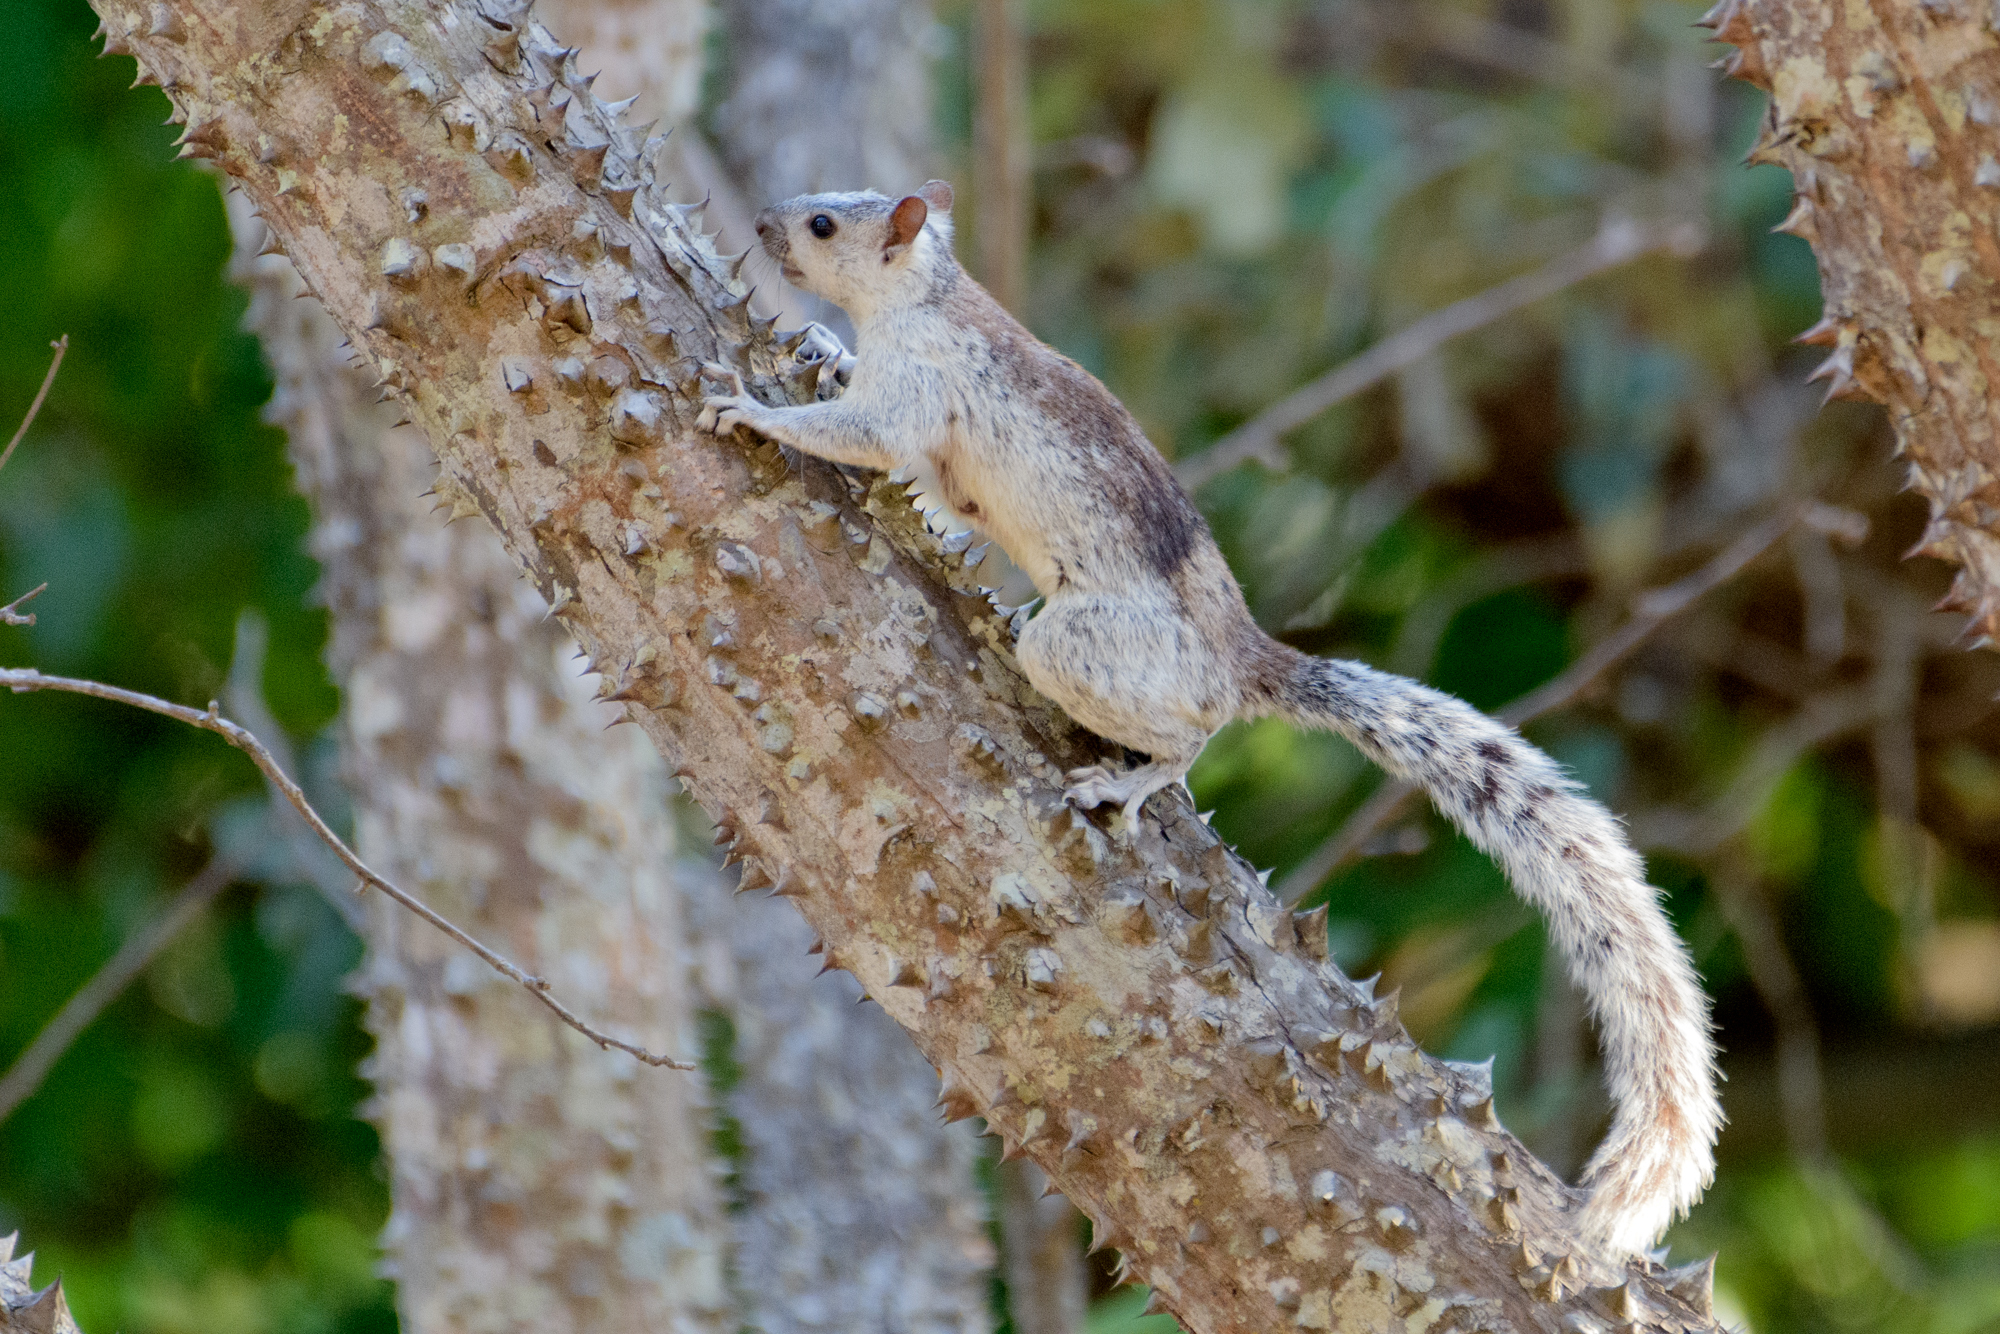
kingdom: Animalia
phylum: Chordata
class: Mammalia
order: Rodentia
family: Sciuridae
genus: Sciurus
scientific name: Sciurus variegatoides
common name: Variegated squirrel
